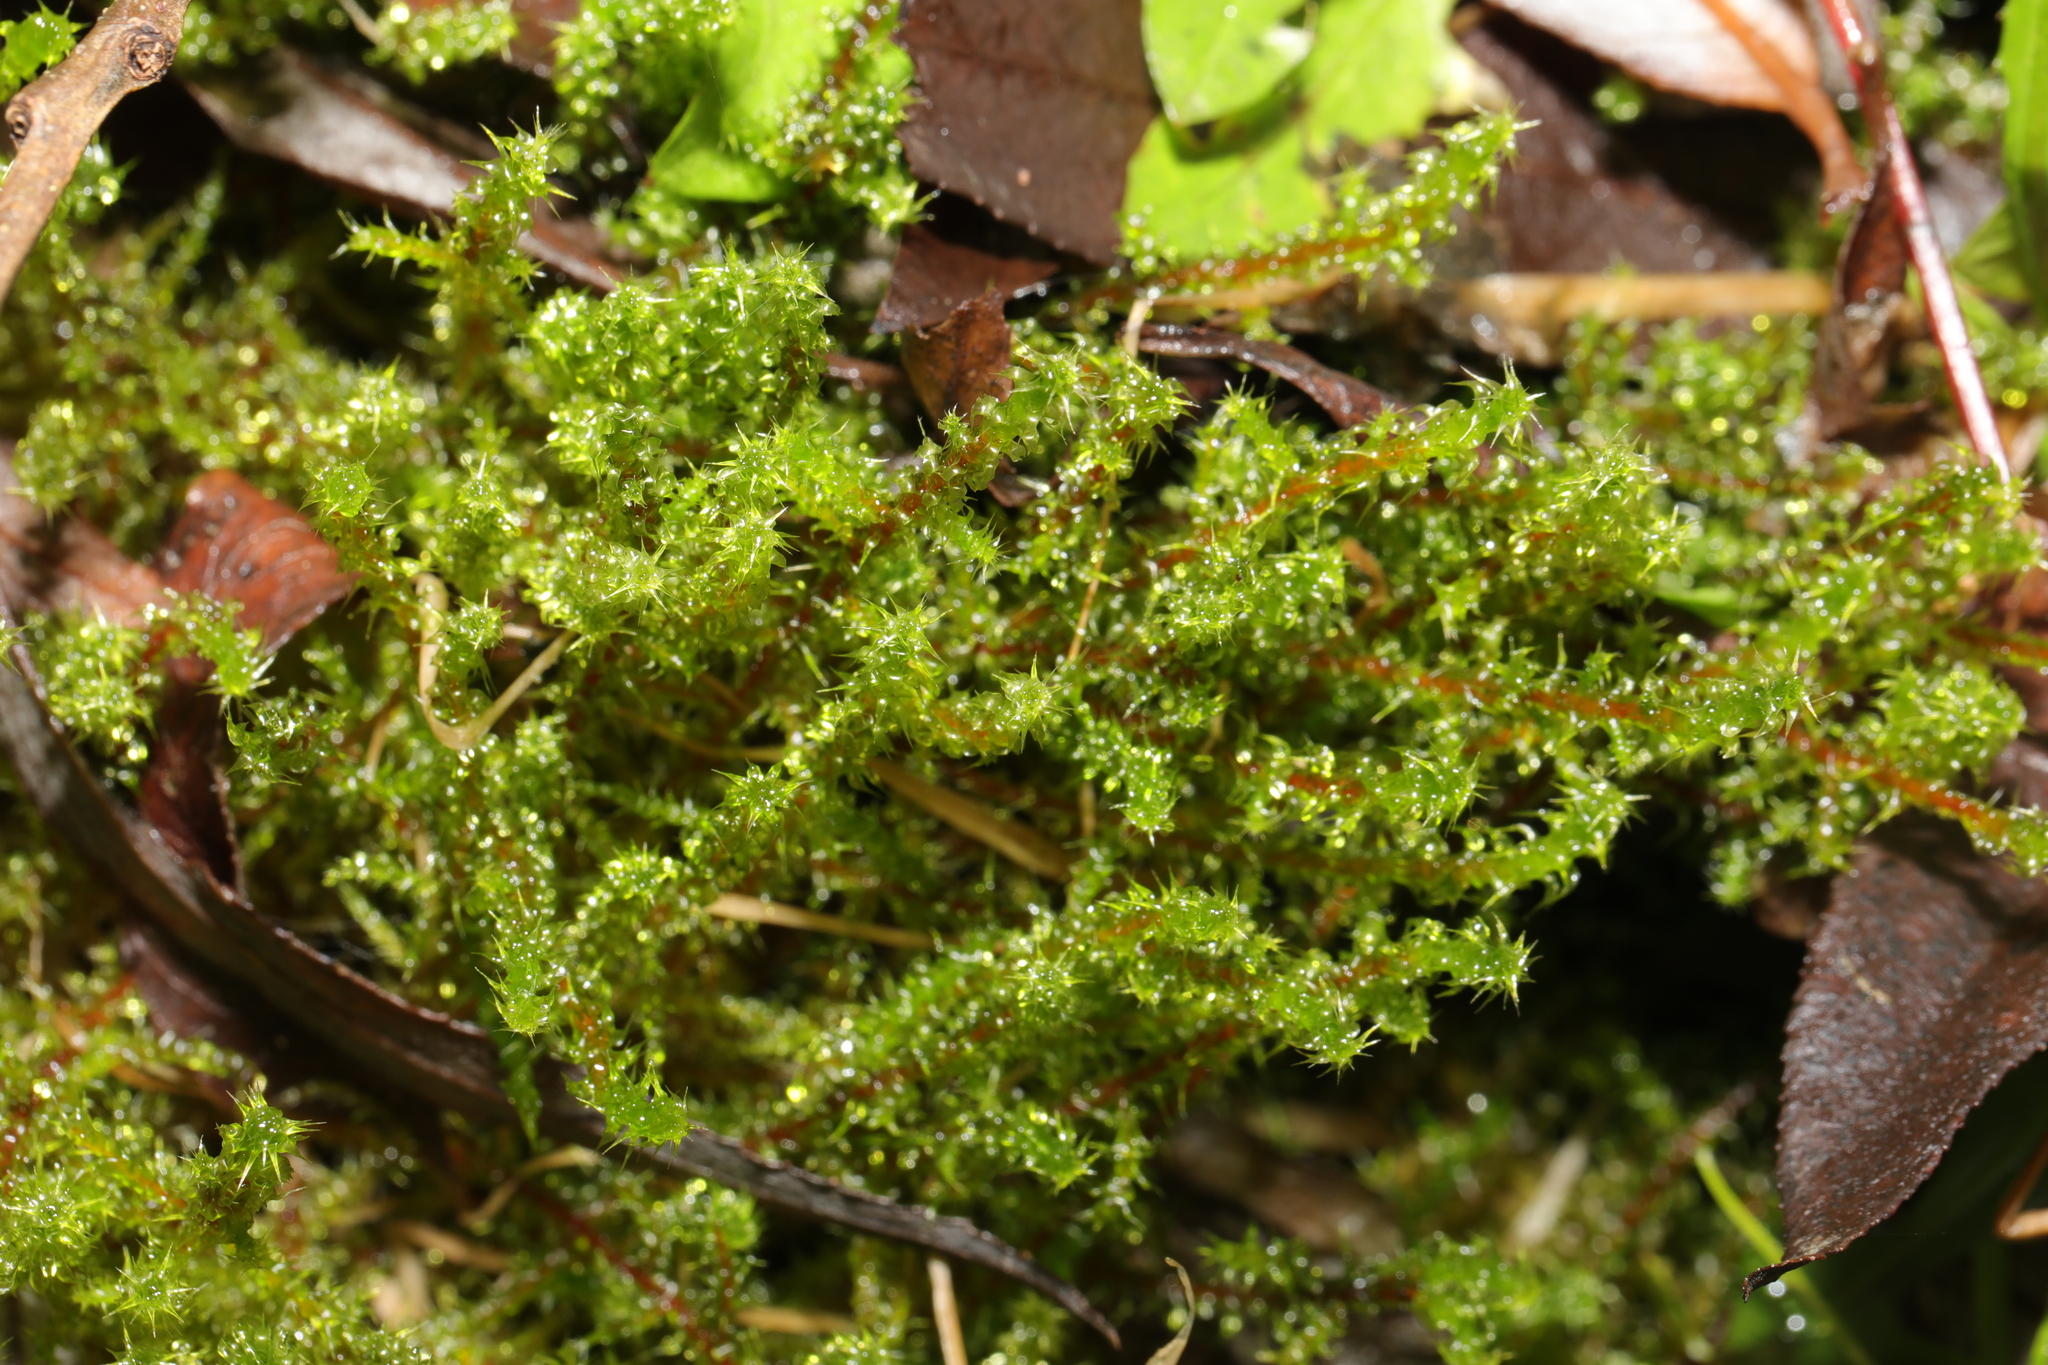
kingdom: Plantae
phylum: Bryophyta
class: Bryopsida
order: Hypnales
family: Hylocomiaceae
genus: Rhytidiadelphus
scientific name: Rhytidiadelphus squarrosus
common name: Springy turf-moss
